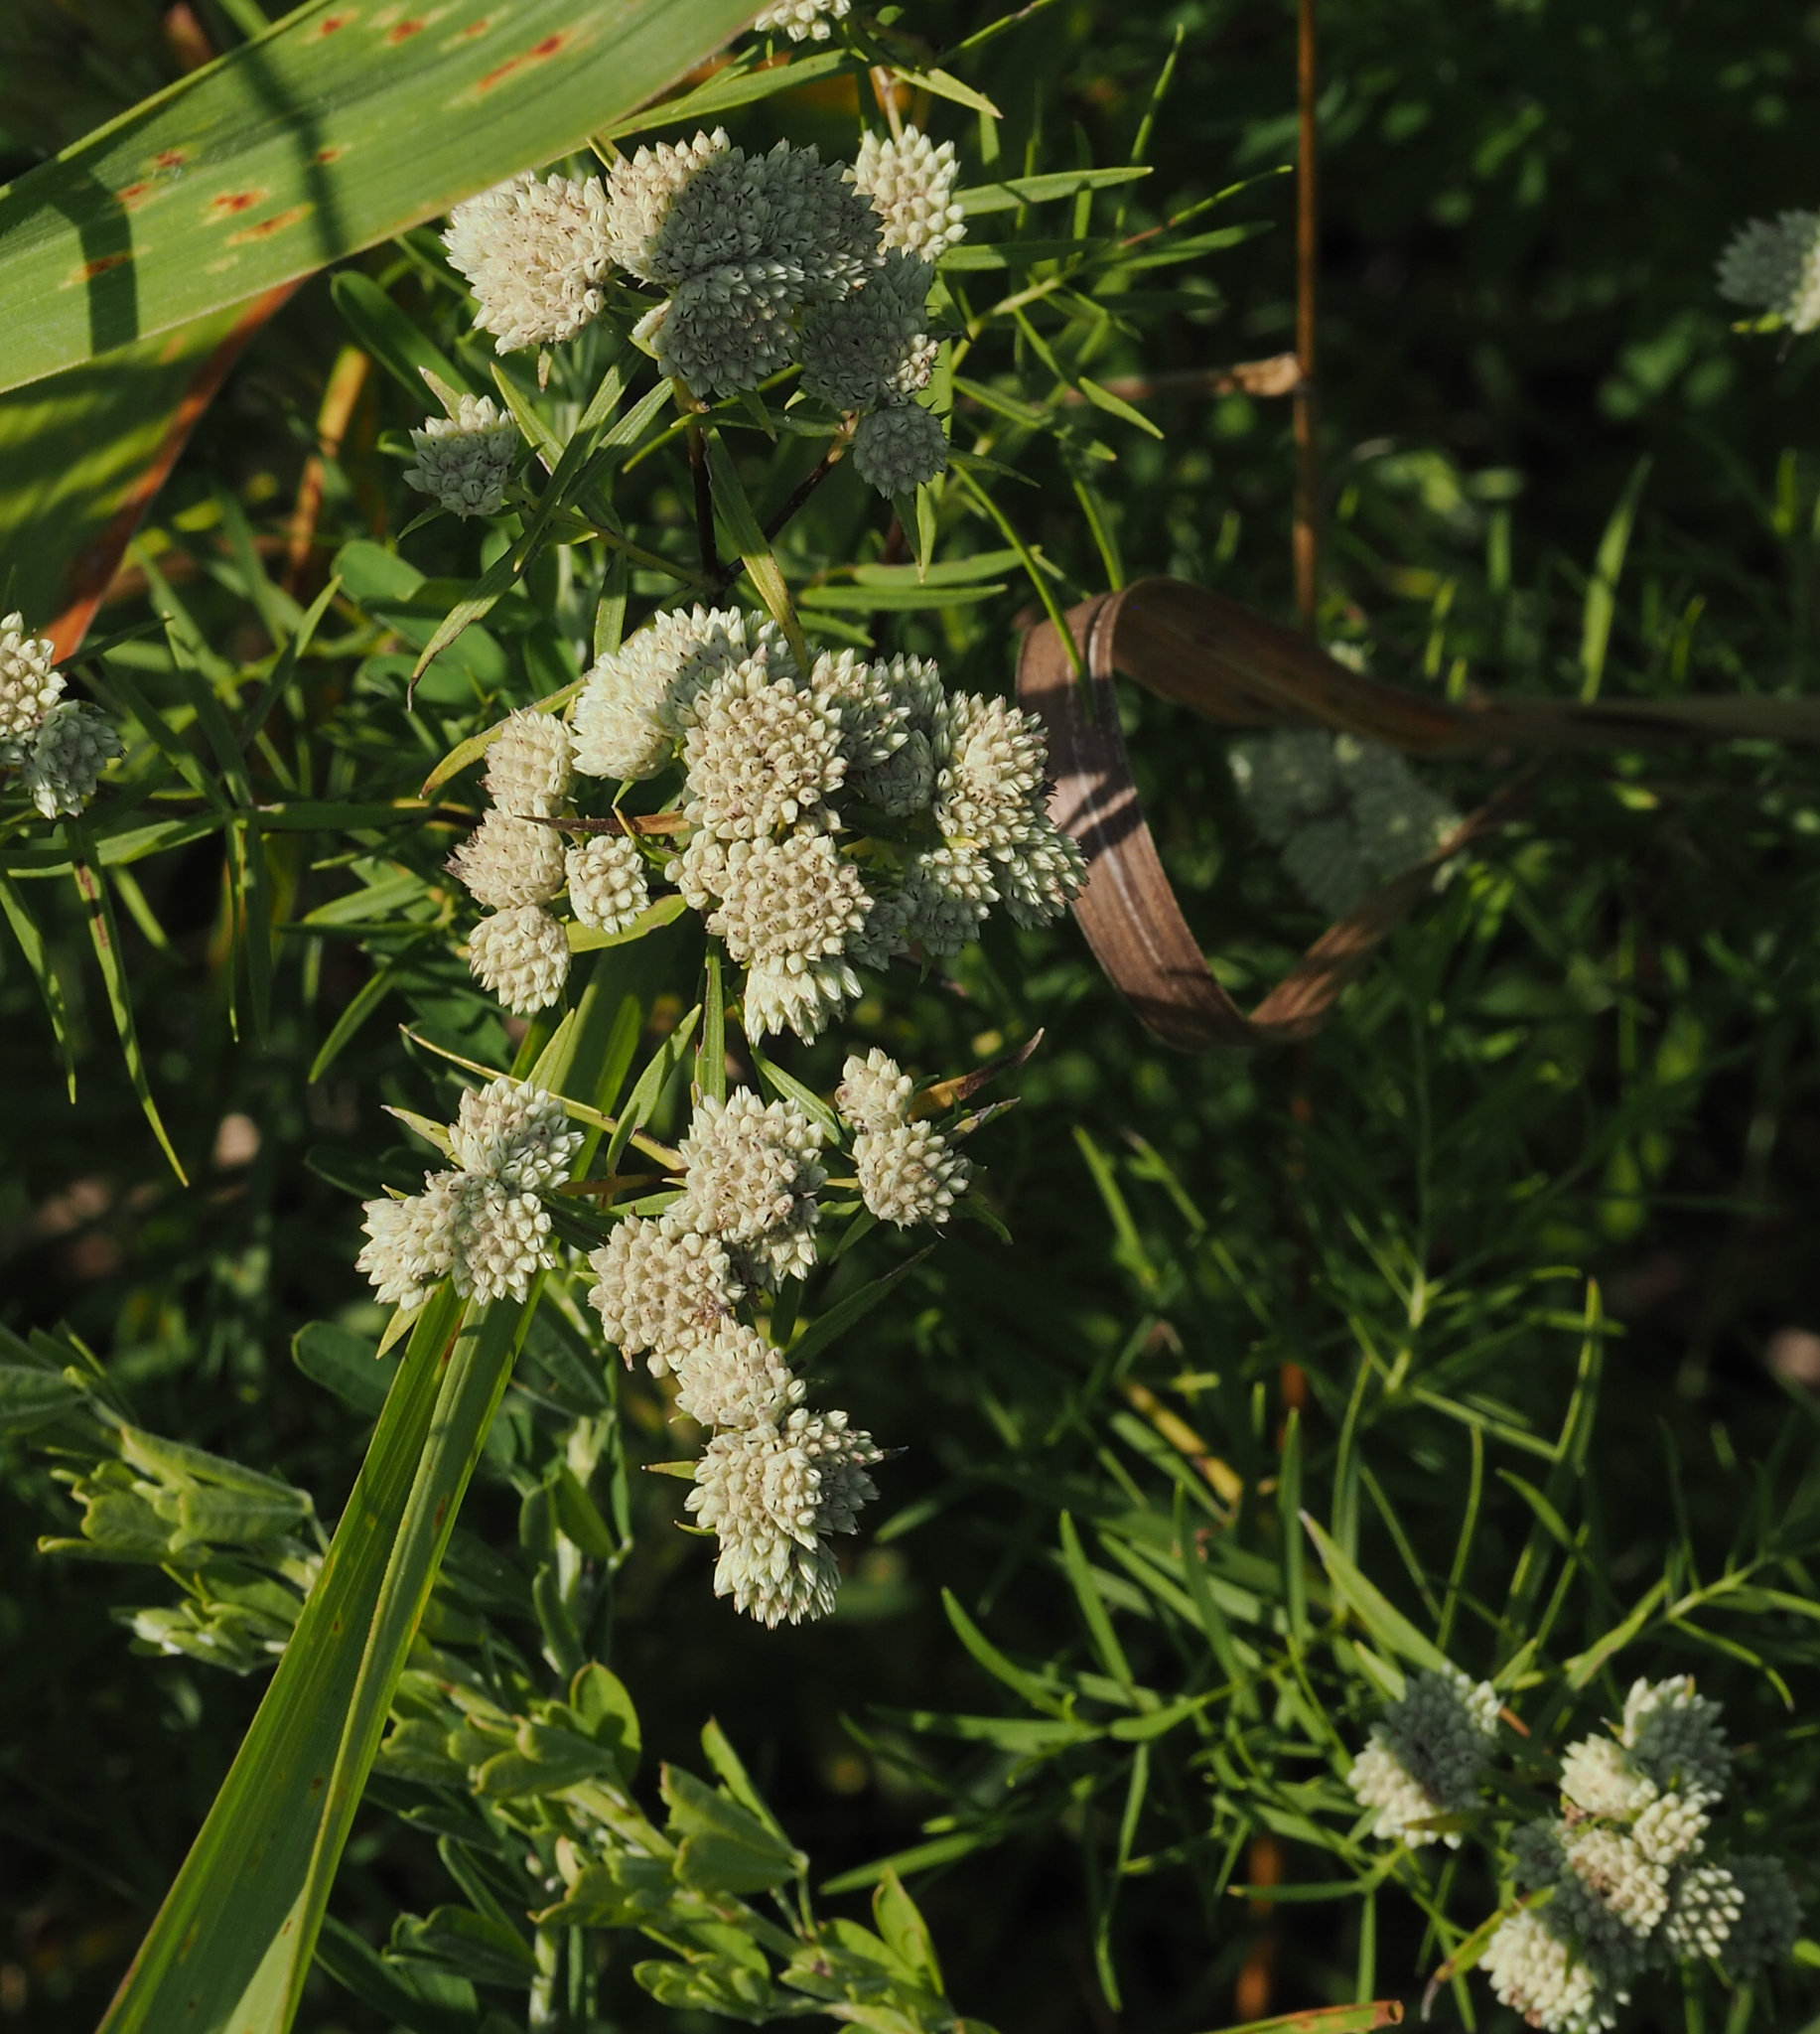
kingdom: Plantae
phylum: Tracheophyta
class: Magnoliopsida
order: Lamiales
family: Lamiaceae
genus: Pycnanthemum
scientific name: Pycnanthemum tenuifolium
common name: Narrow-leaf mountain-mint
